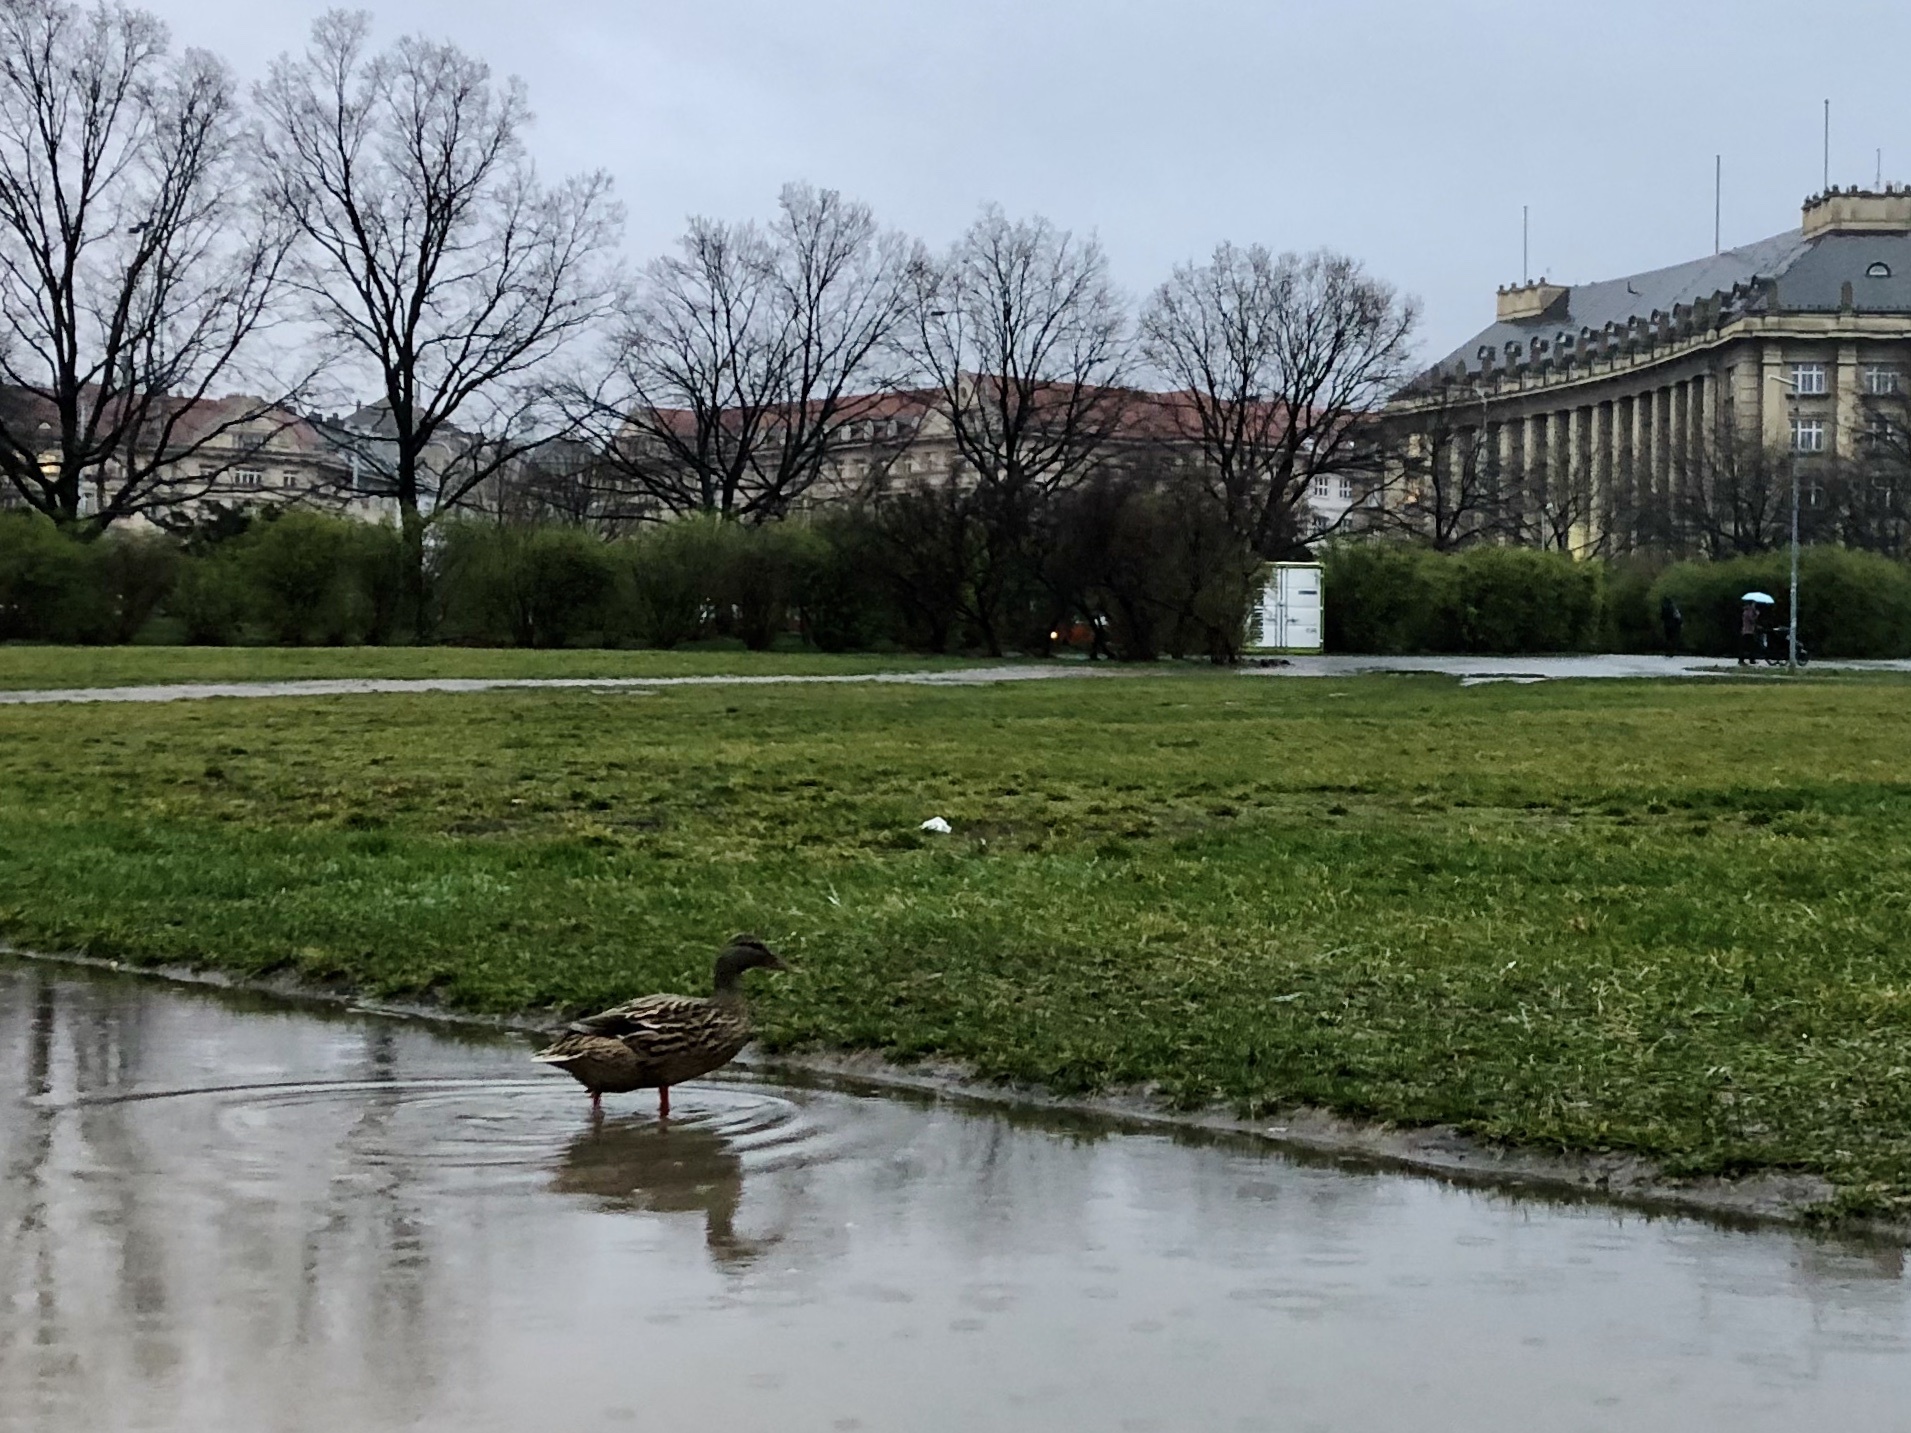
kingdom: Animalia
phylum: Chordata
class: Aves
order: Anseriformes
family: Anatidae
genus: Anas
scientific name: Anas platyrhynchos
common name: Mallard
